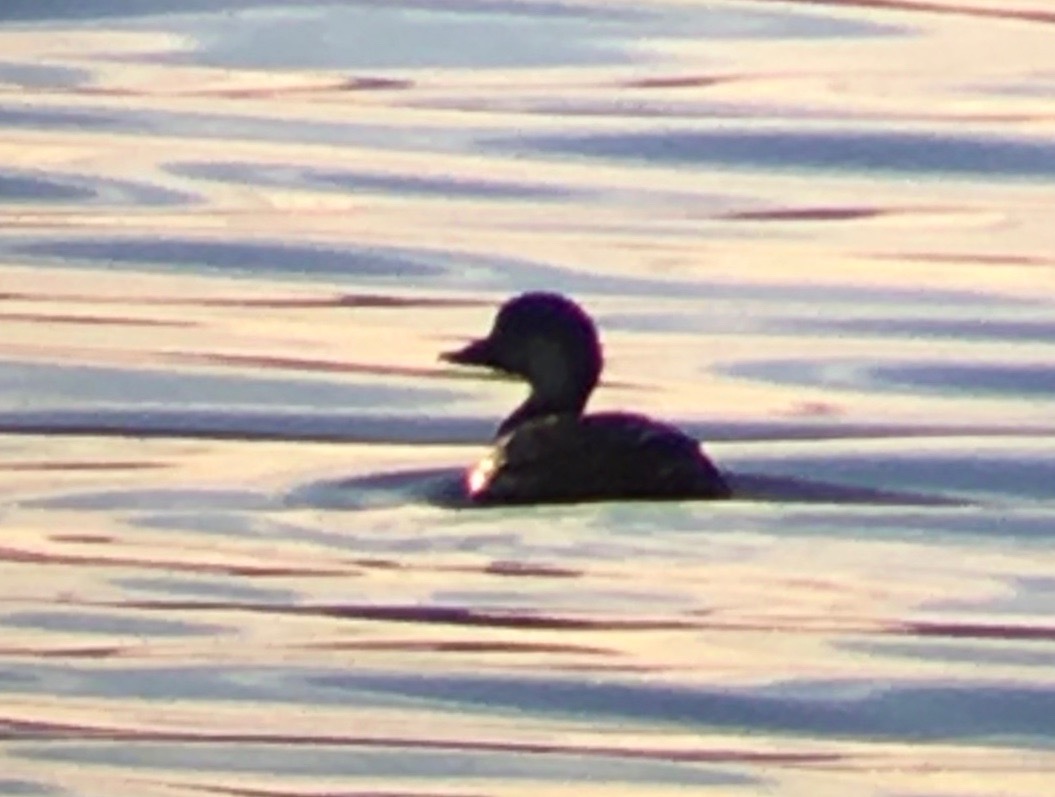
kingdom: Animalia
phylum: Chordata
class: Aves
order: Anseriformes
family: Anatidae
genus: Melanitta
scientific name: Melanitta americana
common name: Black scoter
